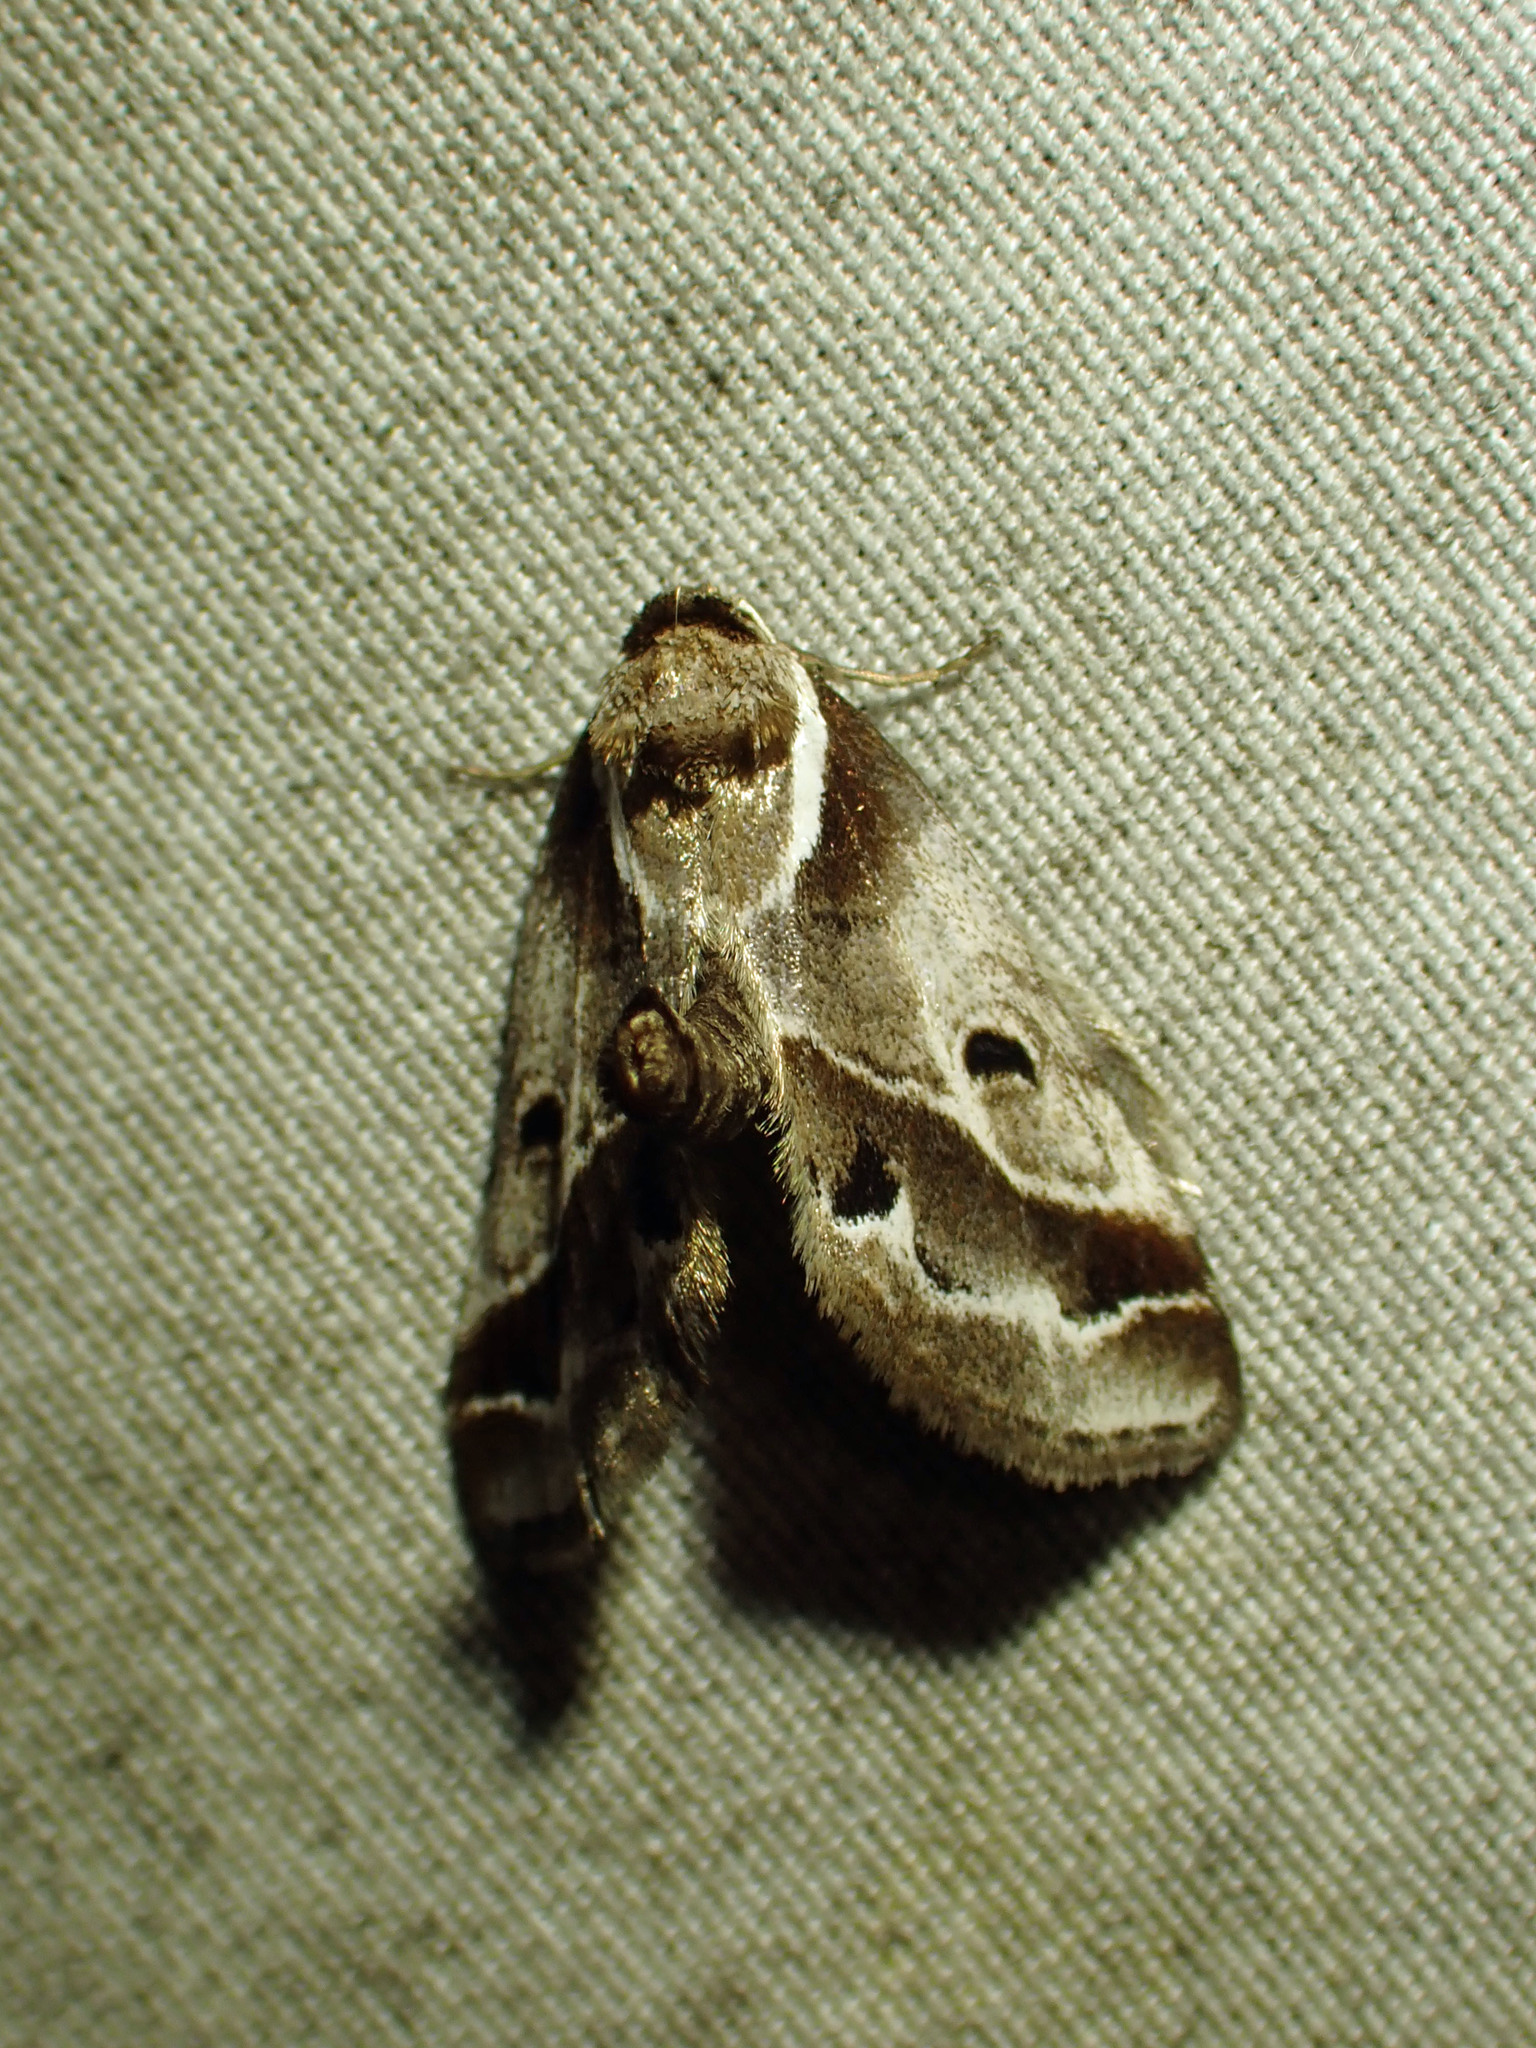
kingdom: Animalia
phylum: Arthropoda
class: Insecta
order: Lepidoptera
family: Nolidae
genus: Baileya
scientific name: Baileya doubledayi
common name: Doubleday's baileya moth
